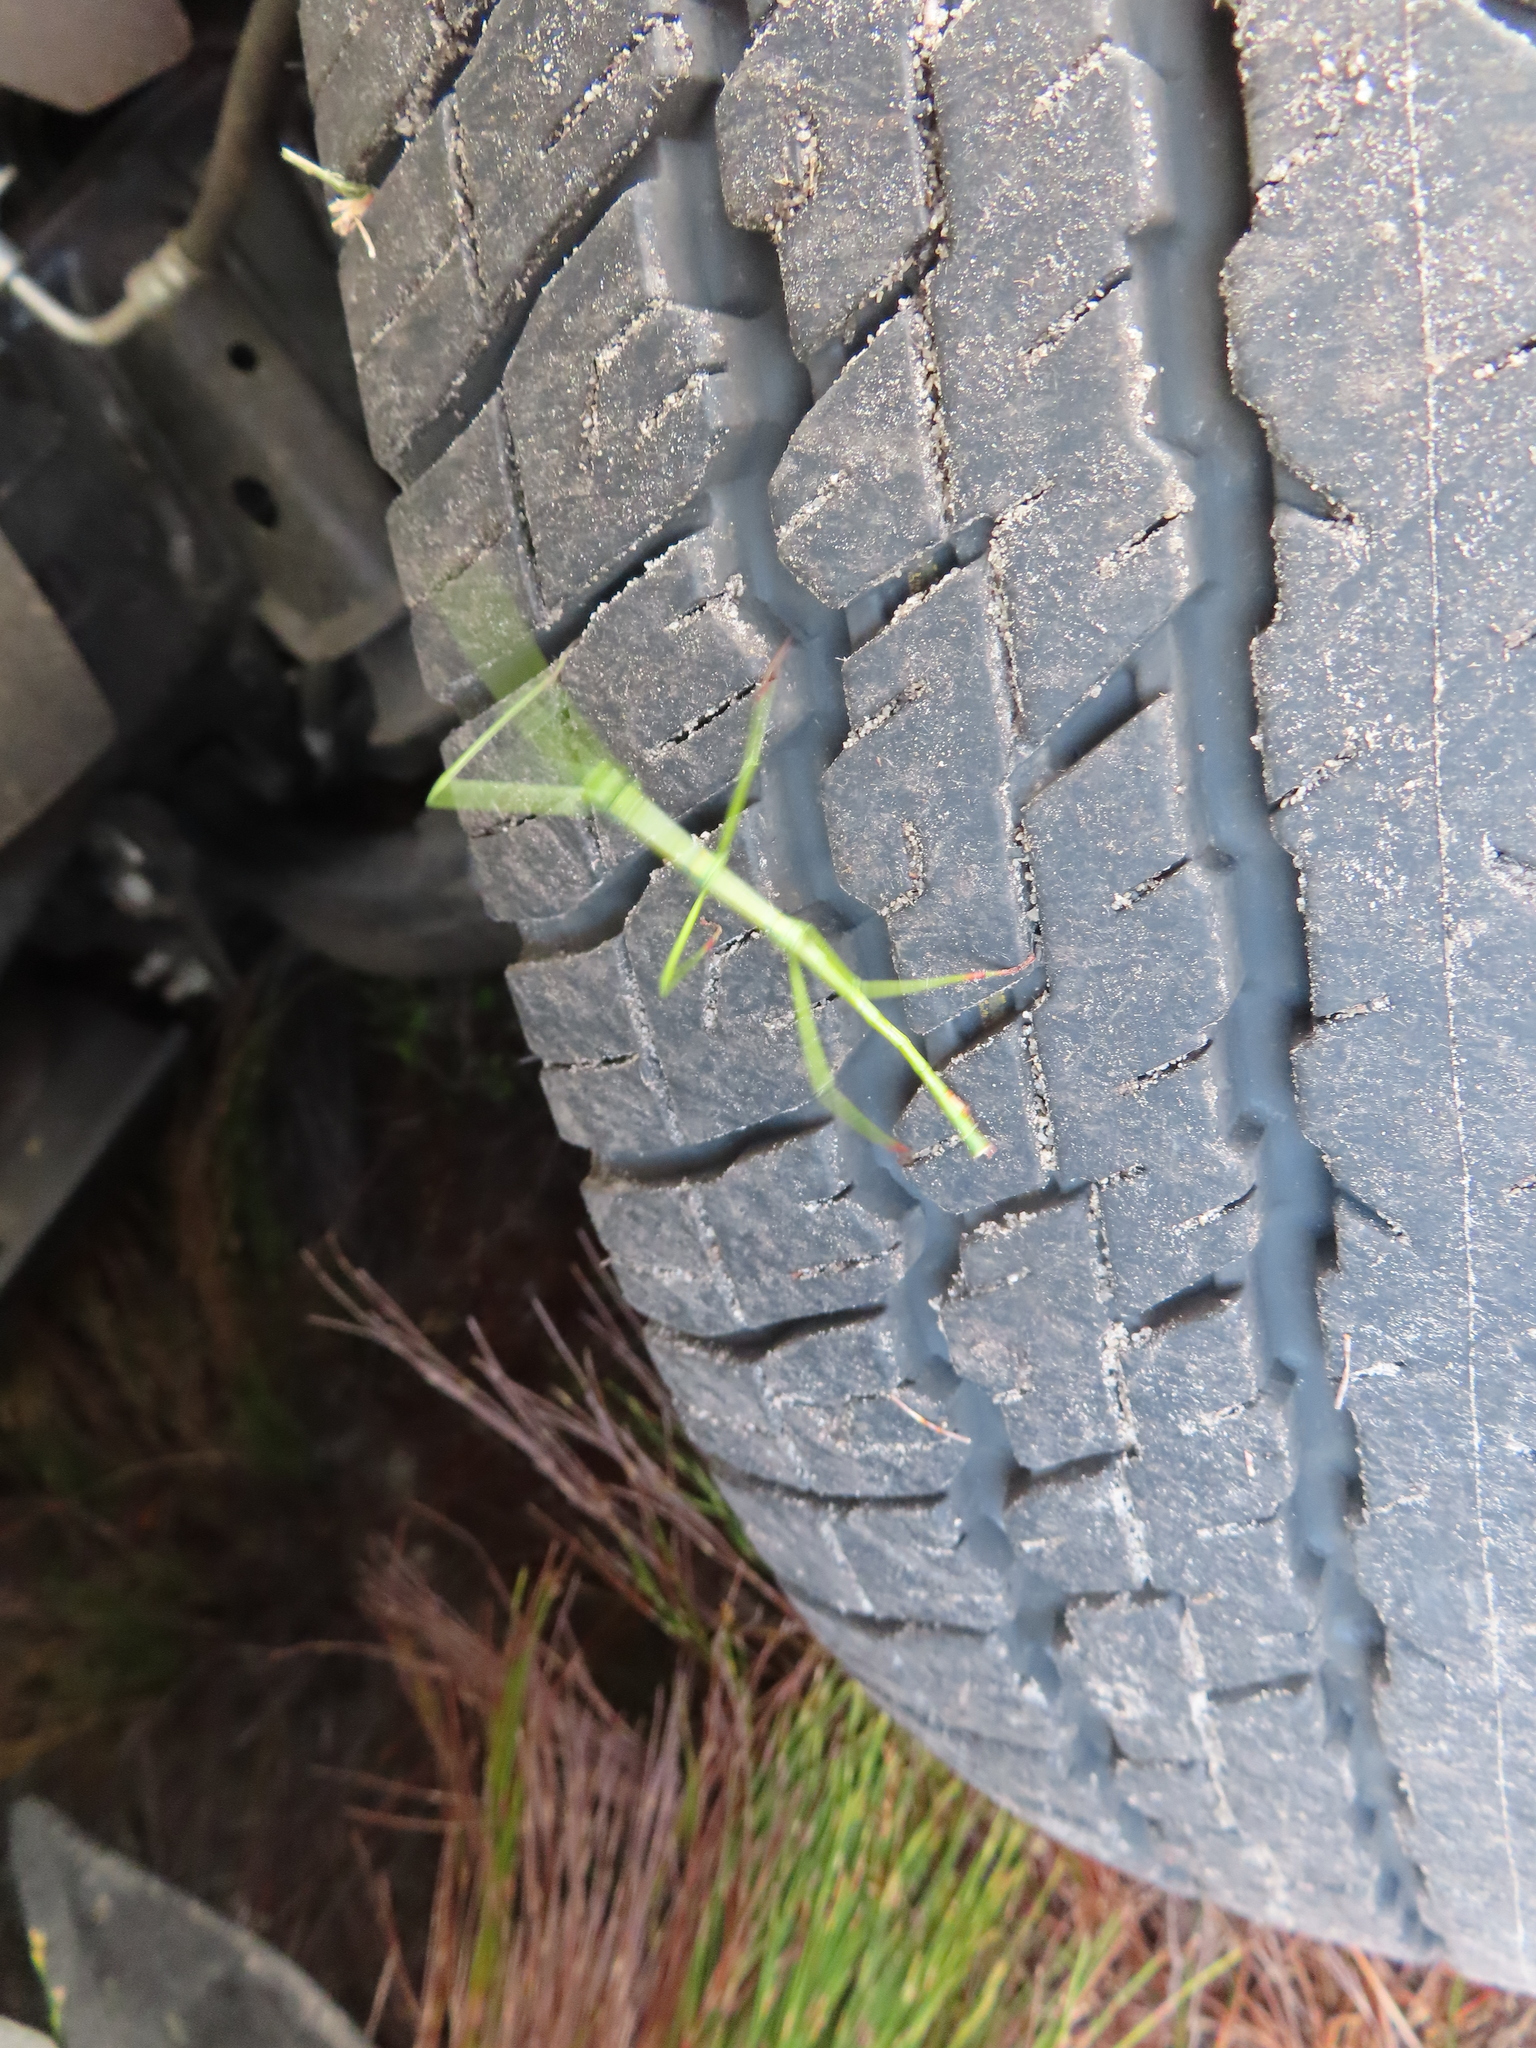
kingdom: Animalia
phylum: Arthropoda
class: Insecta
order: Phasmida
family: Bacillidae
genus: Macynia
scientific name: Macynia labiata
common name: Thunberg's stick insect
